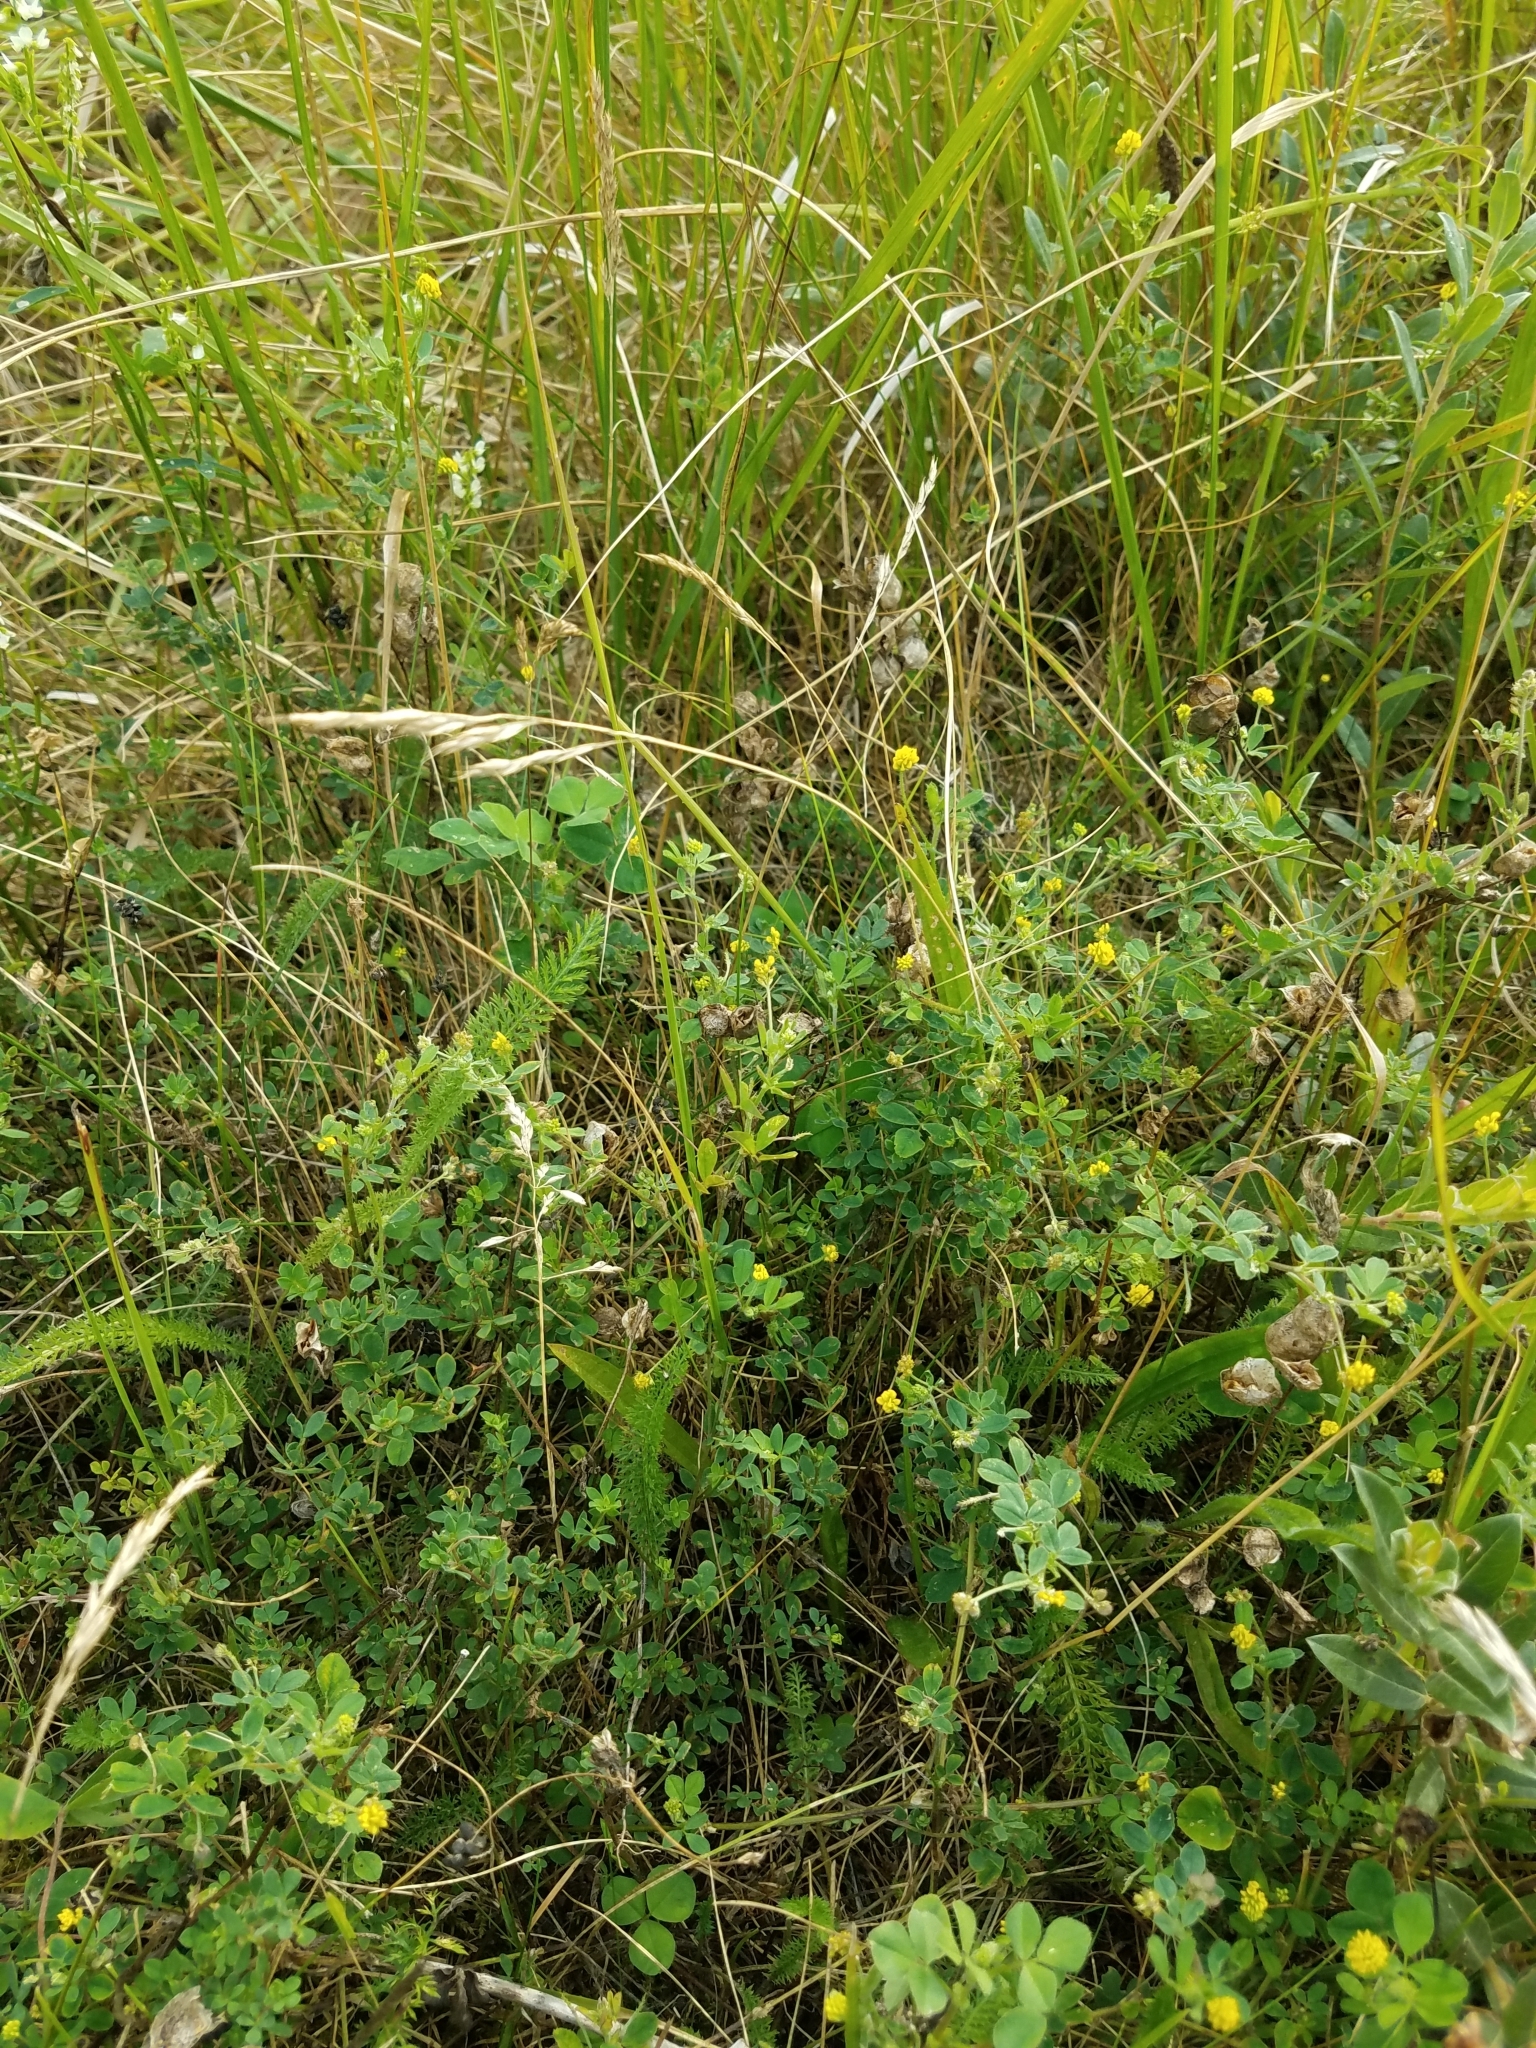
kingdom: Plantae
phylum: Tracheophyta
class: Magnoliopsida
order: Fabales
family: Fabaceae
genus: Medicago
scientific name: Medicago lupulina
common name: Black medick
